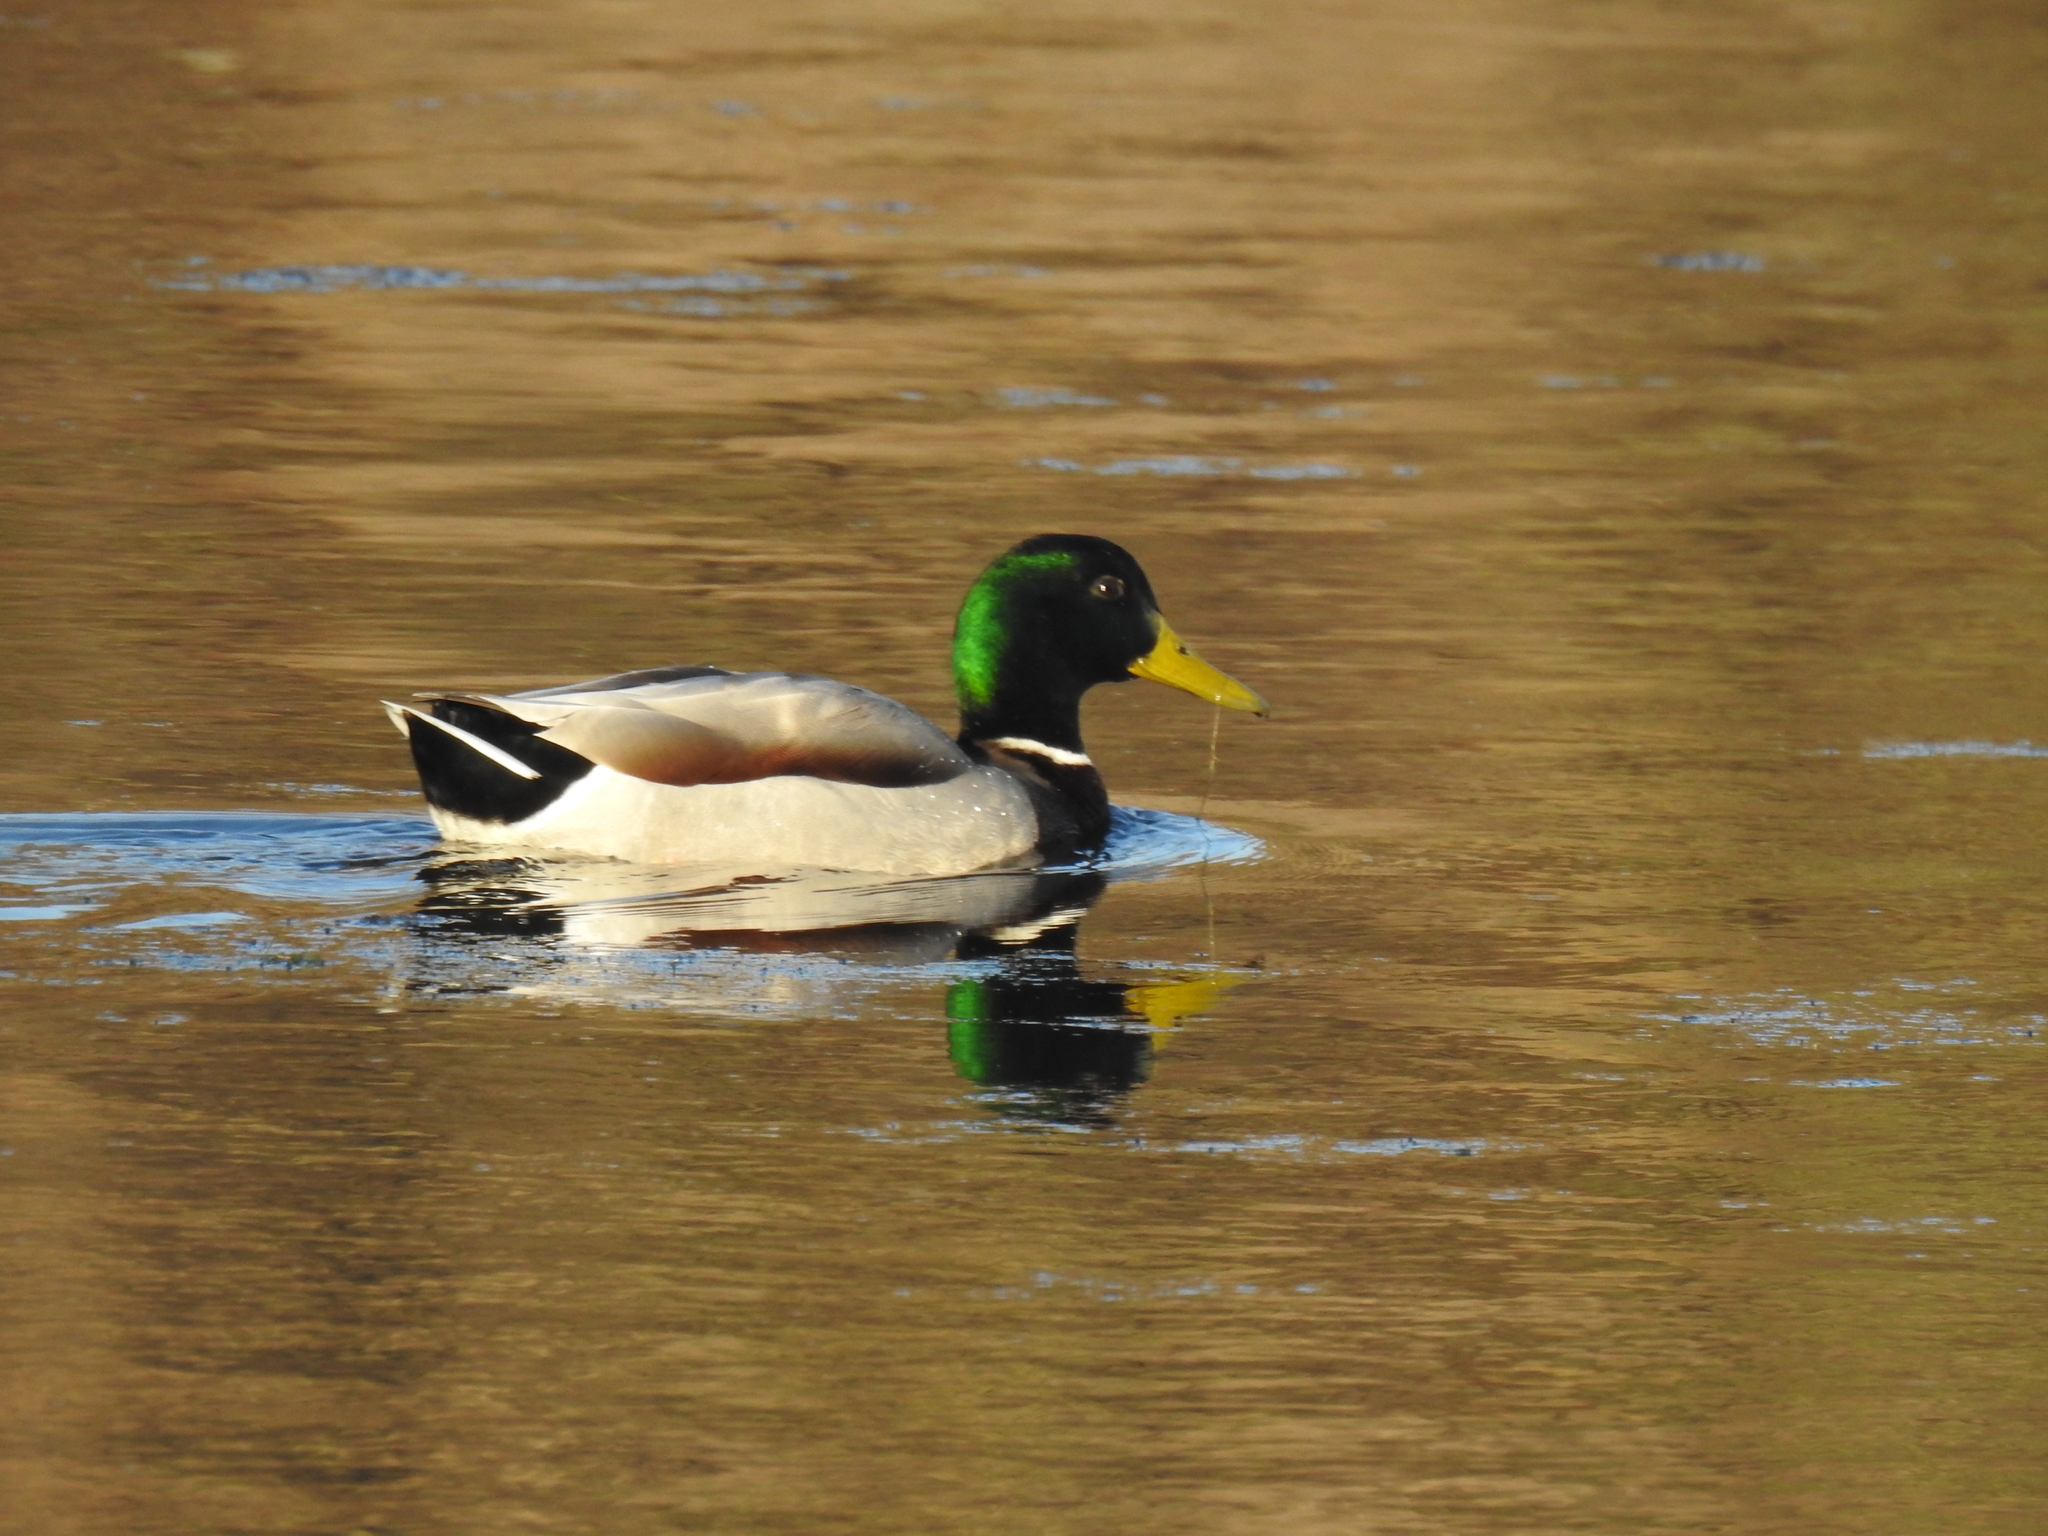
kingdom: Animalia
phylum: Chordata
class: Aves
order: Anseriformes
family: Anatidae
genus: Anas
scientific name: Anas platyrhynchos
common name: Mallard
